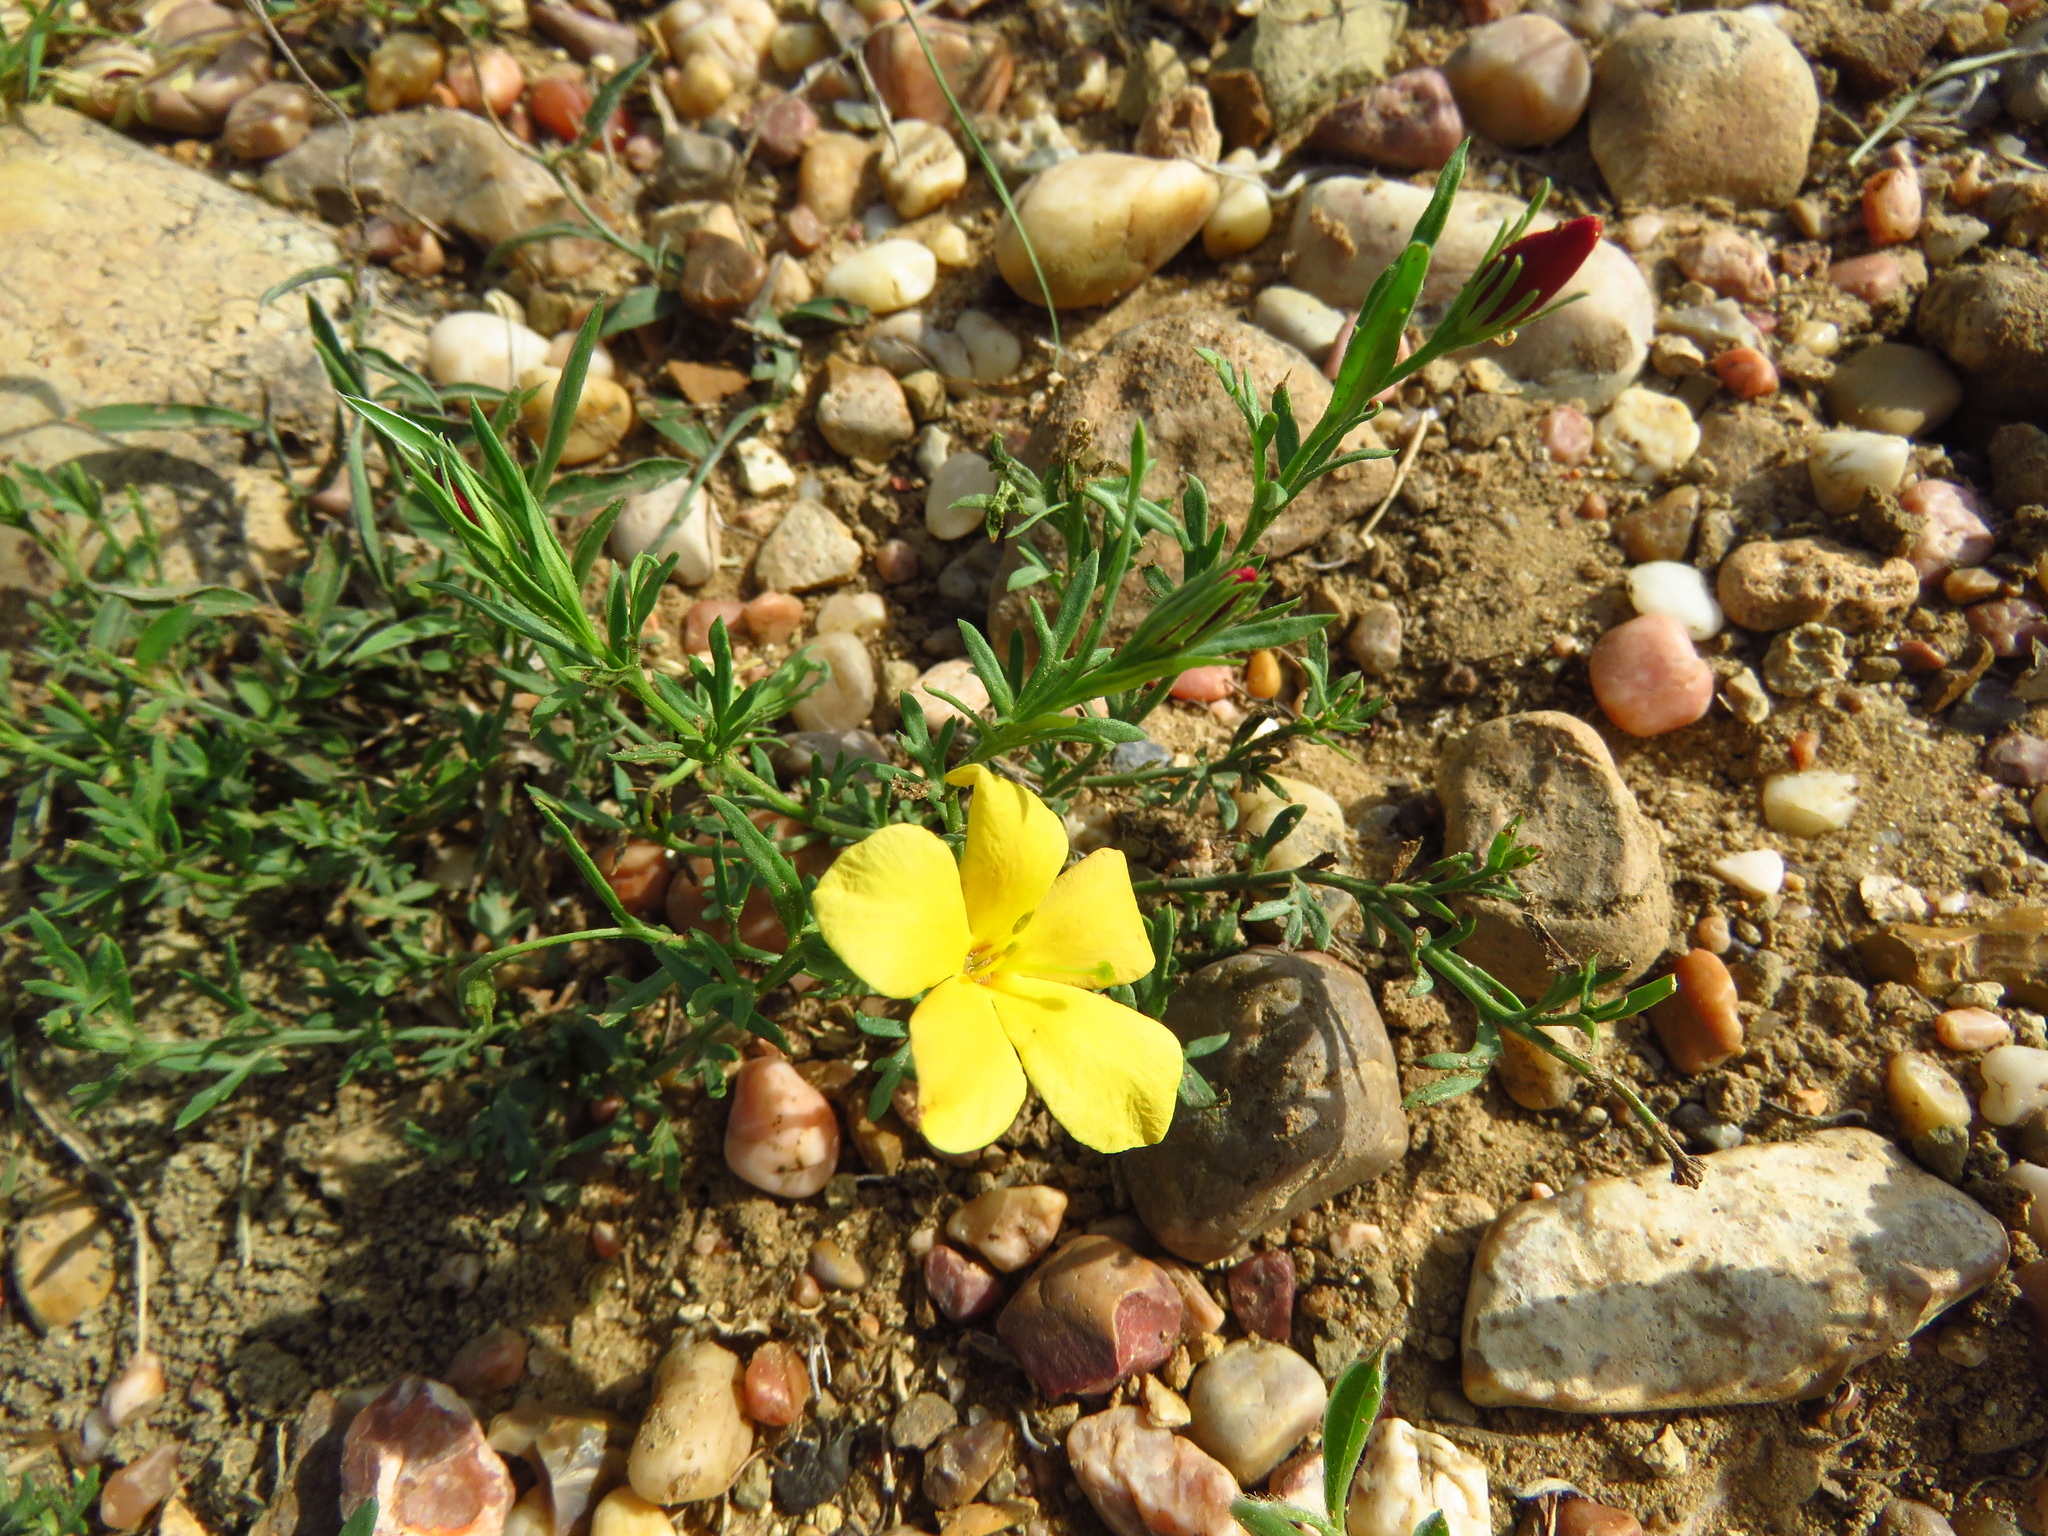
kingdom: Plantae
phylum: Tracheophyta
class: Magnoliopsida
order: Lamiales
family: Oleaceae
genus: Menodora
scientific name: Menodora heterophylla
